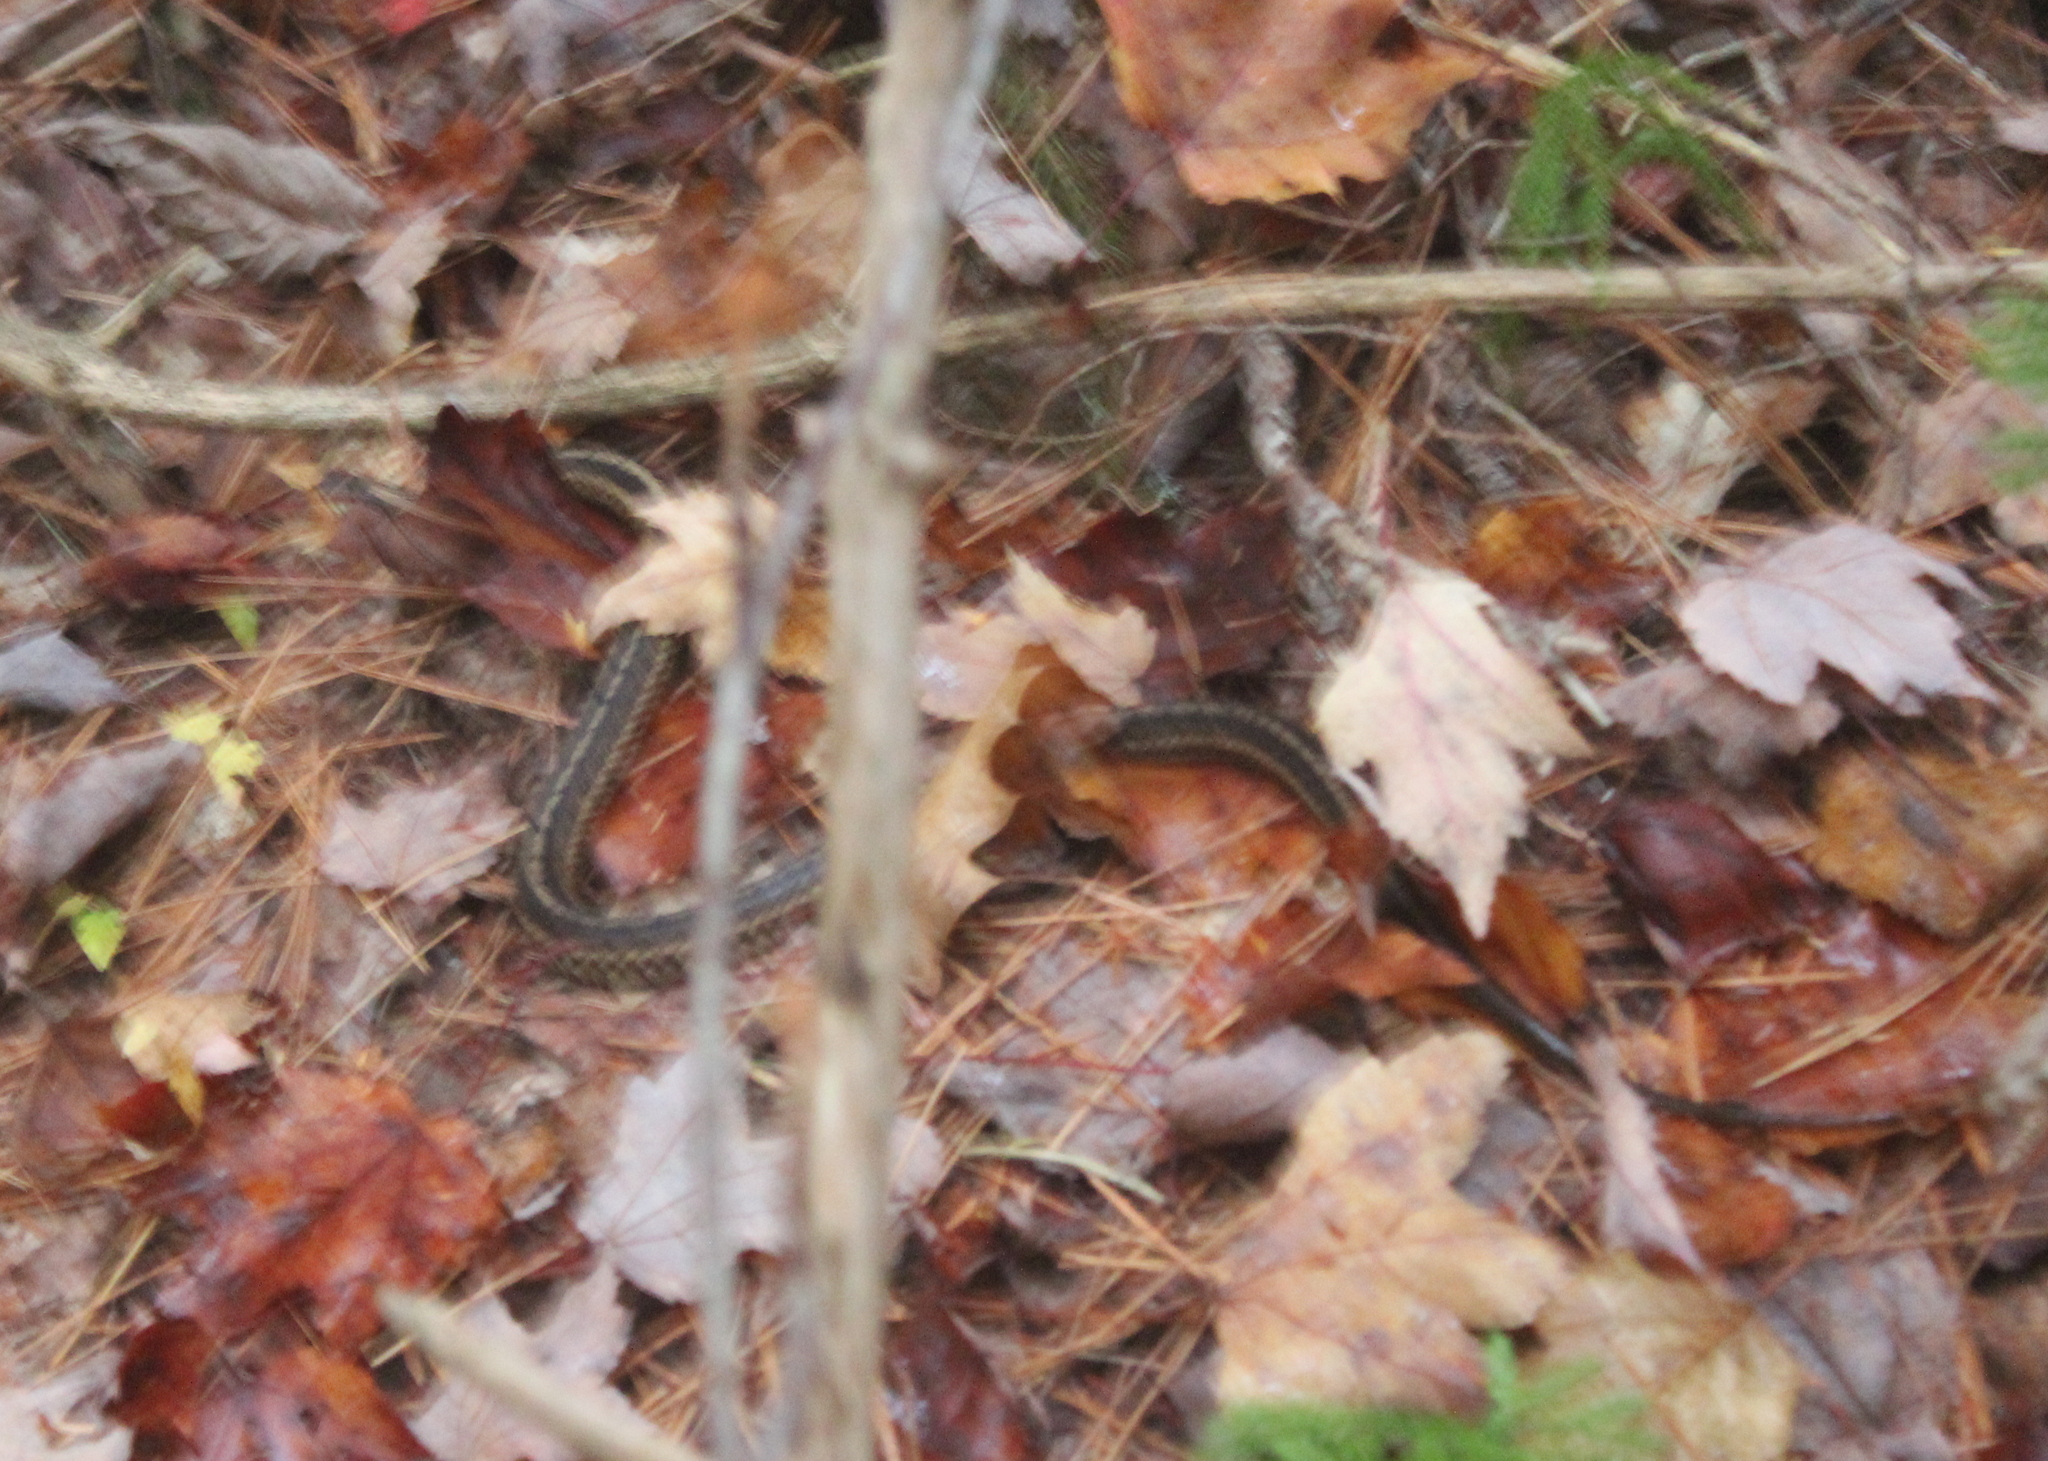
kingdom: Animalia
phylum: Chordata
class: Squamata
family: Colubridae
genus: Thamnophis
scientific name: Thamnophis sirtalis
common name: Common garter snake
